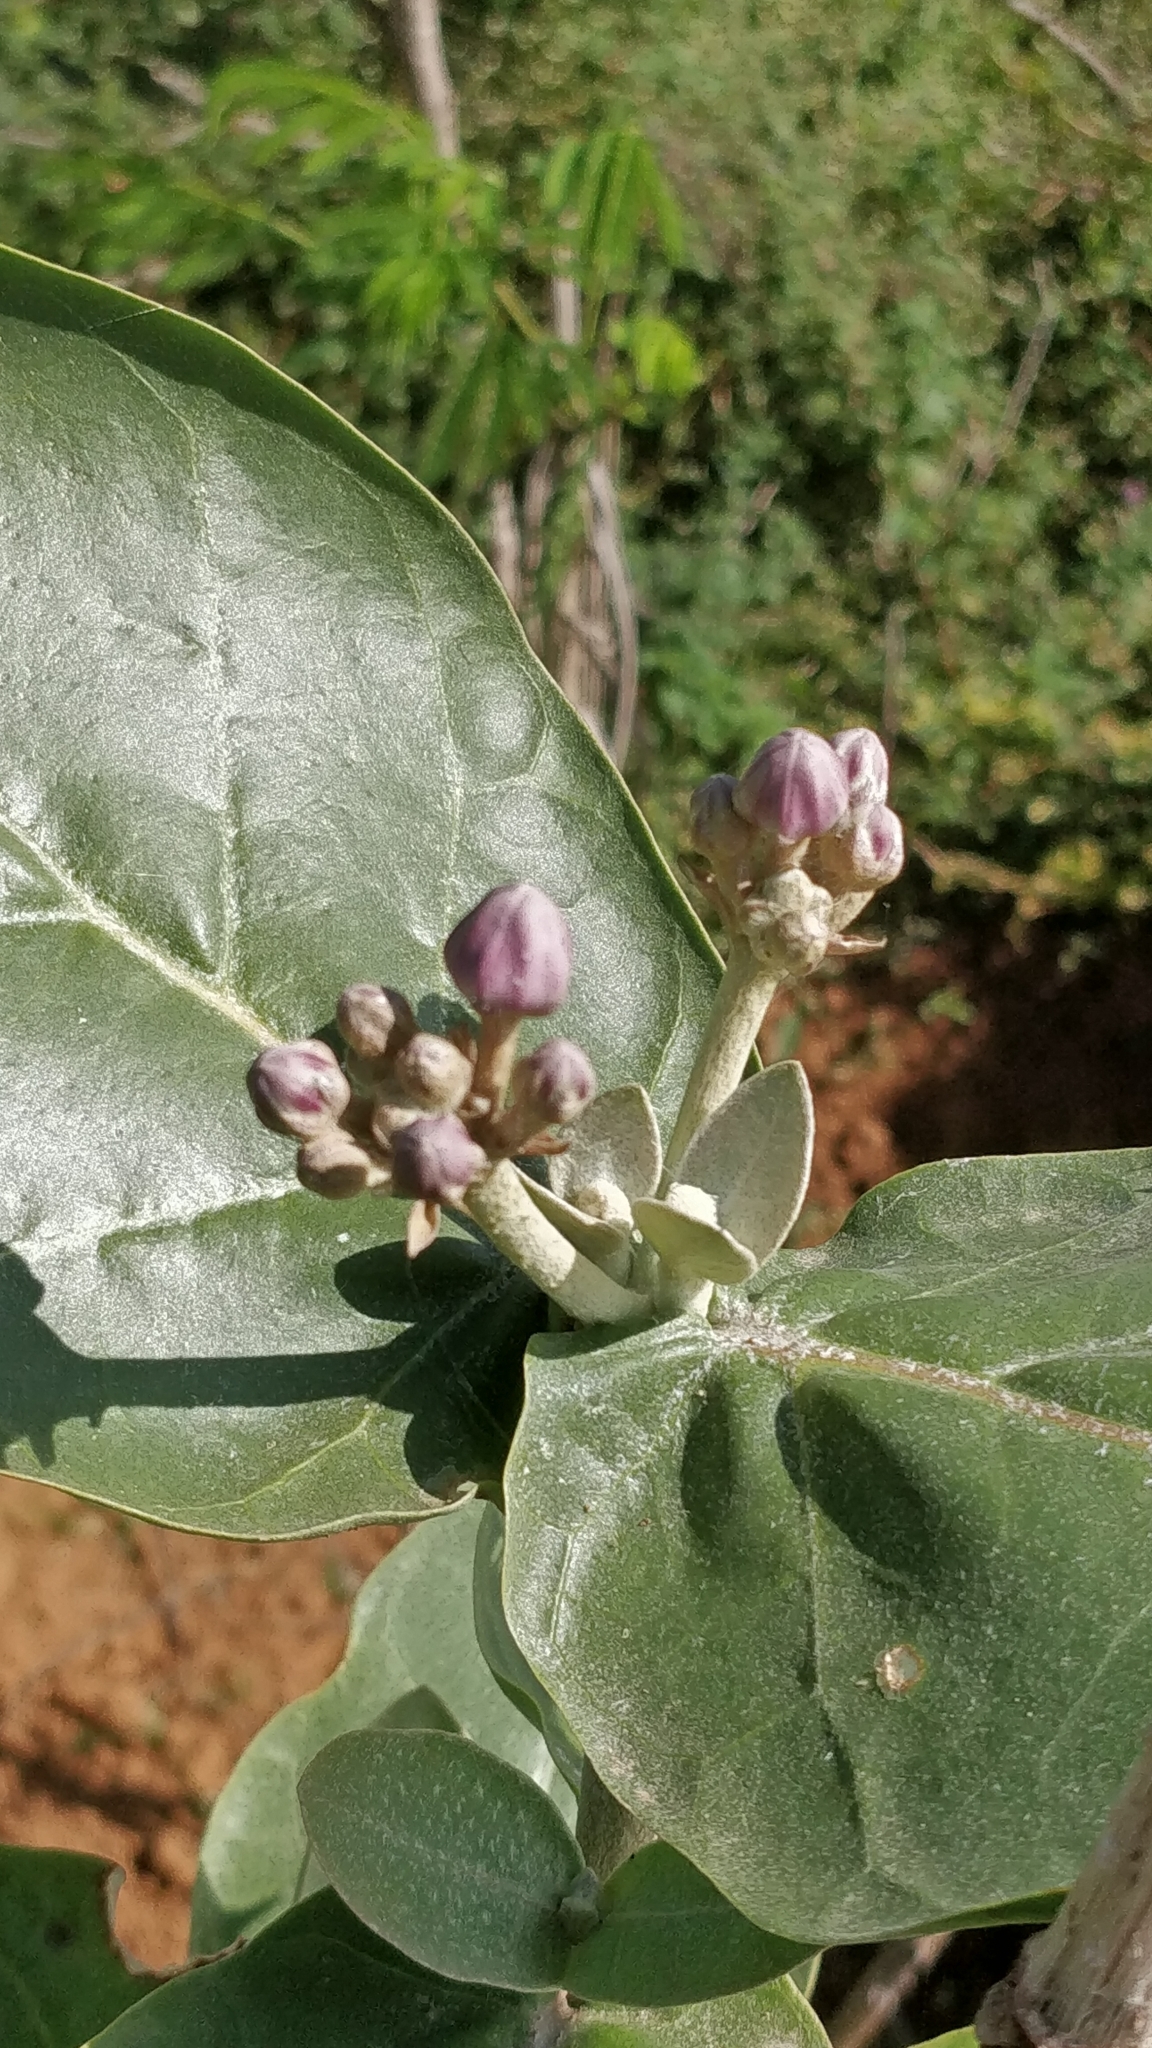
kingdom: Plantae
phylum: Tracheophyta
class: Magnoliopsida
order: Gentianales
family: Apocynaceae
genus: Calotropis
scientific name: Calotropis gigantea
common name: Crown flower
